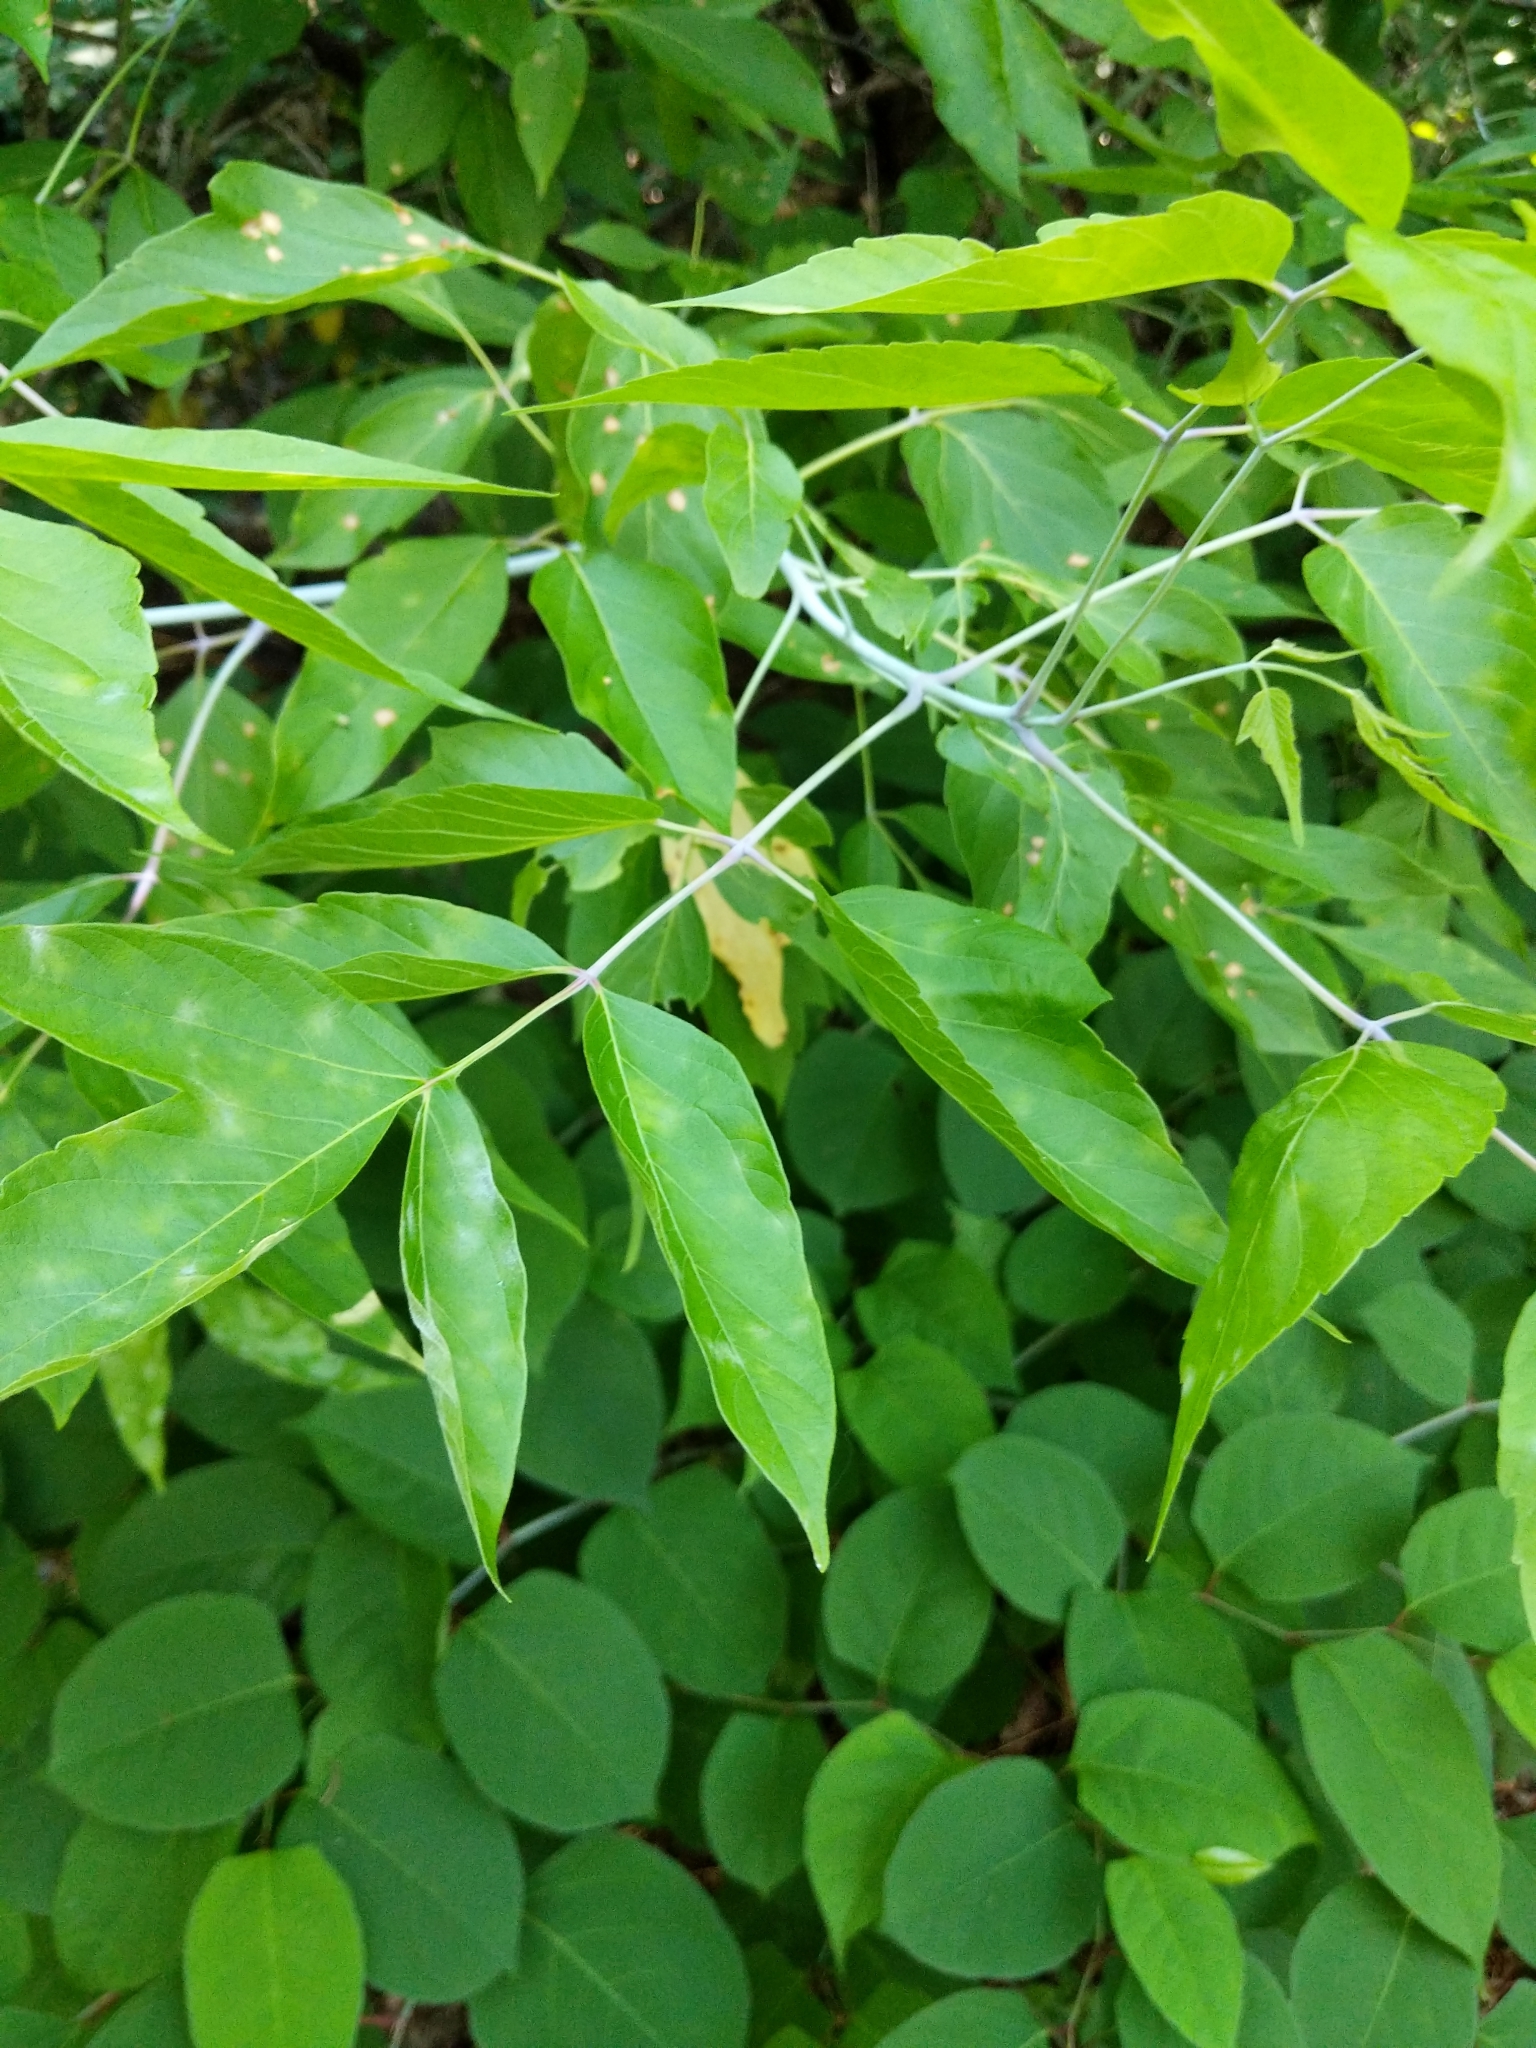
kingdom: Plantae
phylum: Tracheophyta
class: Magnoliopsida
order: Sapindales
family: Sapindaceae
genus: Acer
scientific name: Acer negundo
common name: Ashleaf maple
